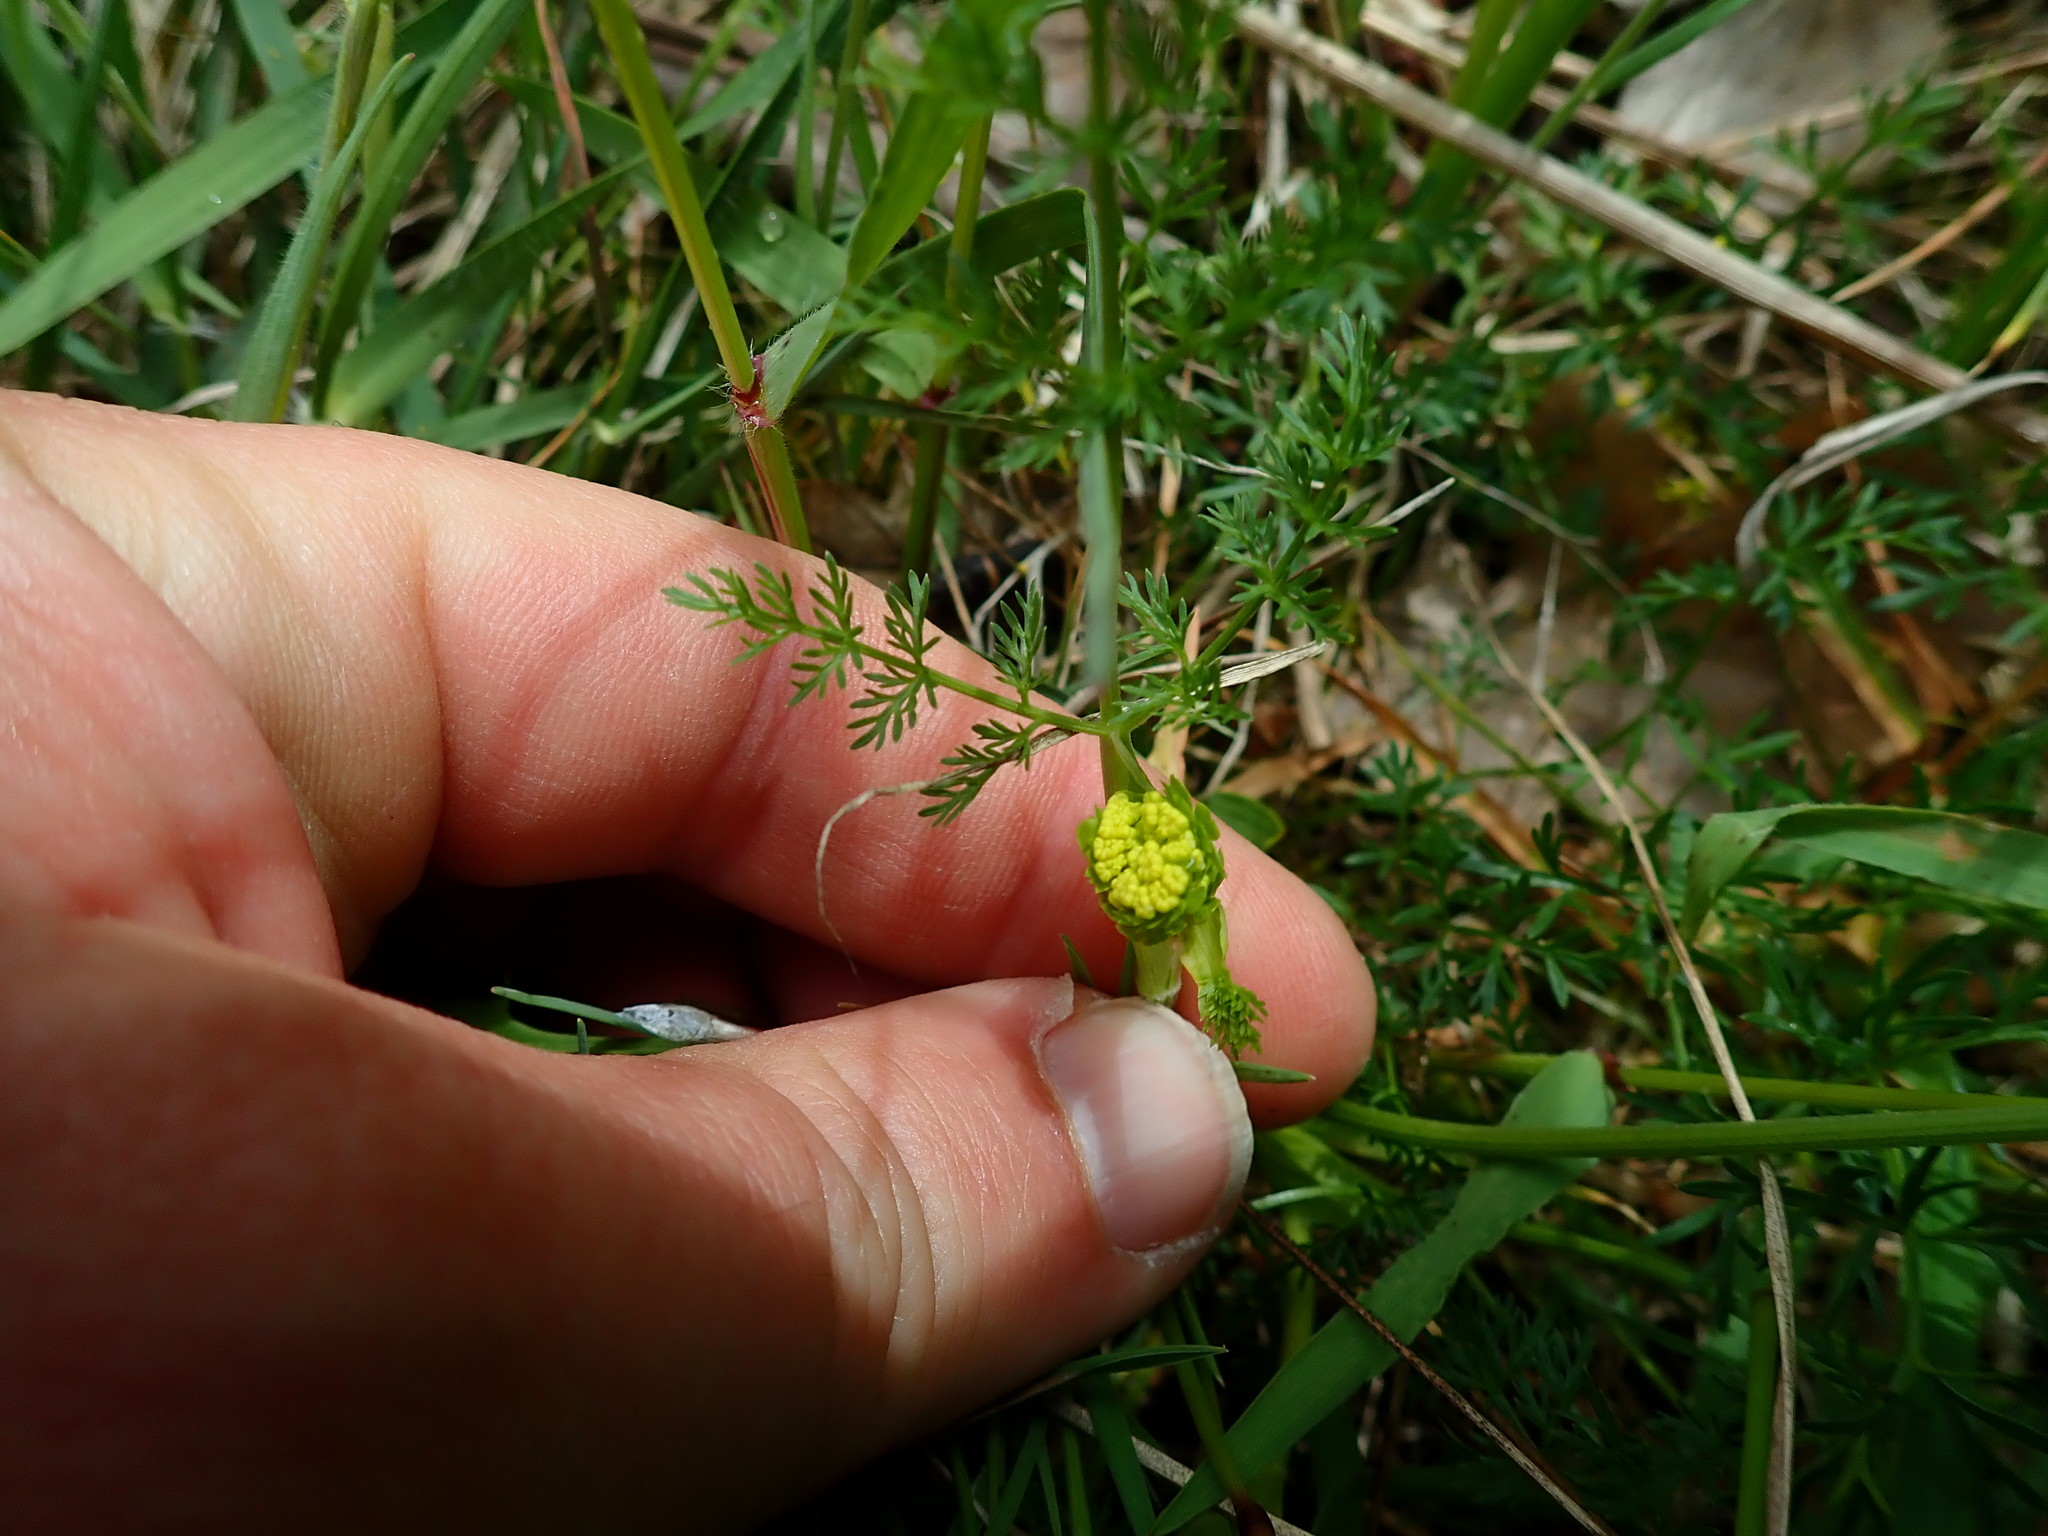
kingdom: Plantae
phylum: Tracheophyta
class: Magnoliopsida
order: Apiales
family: Apiaceae
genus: Lomatium
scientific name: Lomatium utriculatum
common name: Fine-leaf desert-parsley
